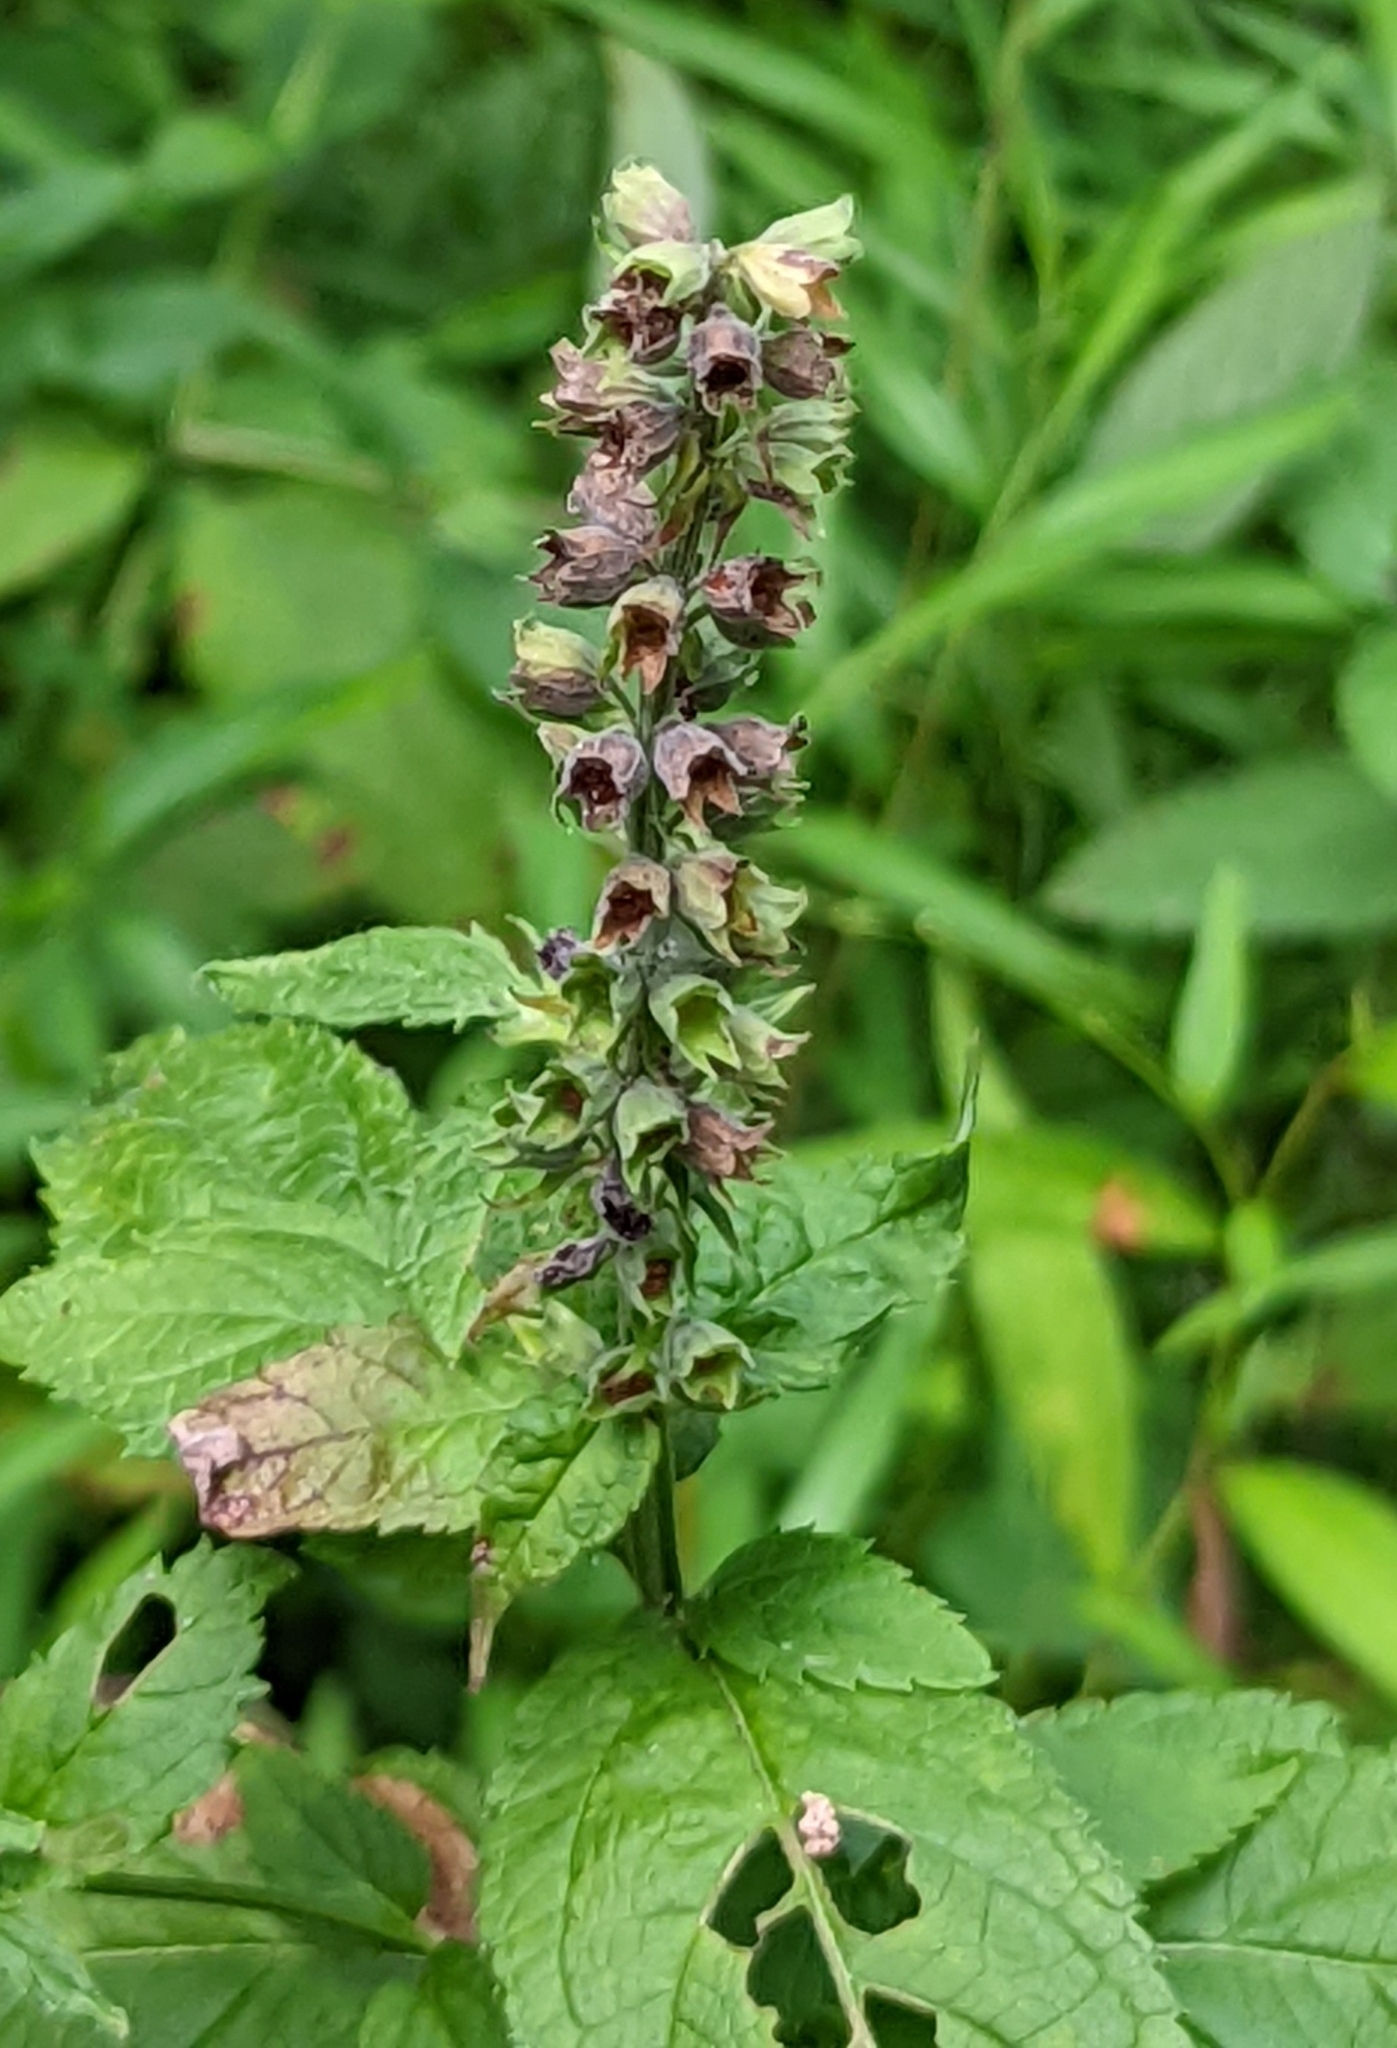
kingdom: Plantae
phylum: Tracheophyta
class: Magnoliopsida
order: Lamiales
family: Lamiaceae
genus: Teucrium
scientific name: Teucrium canadense
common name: American germander
